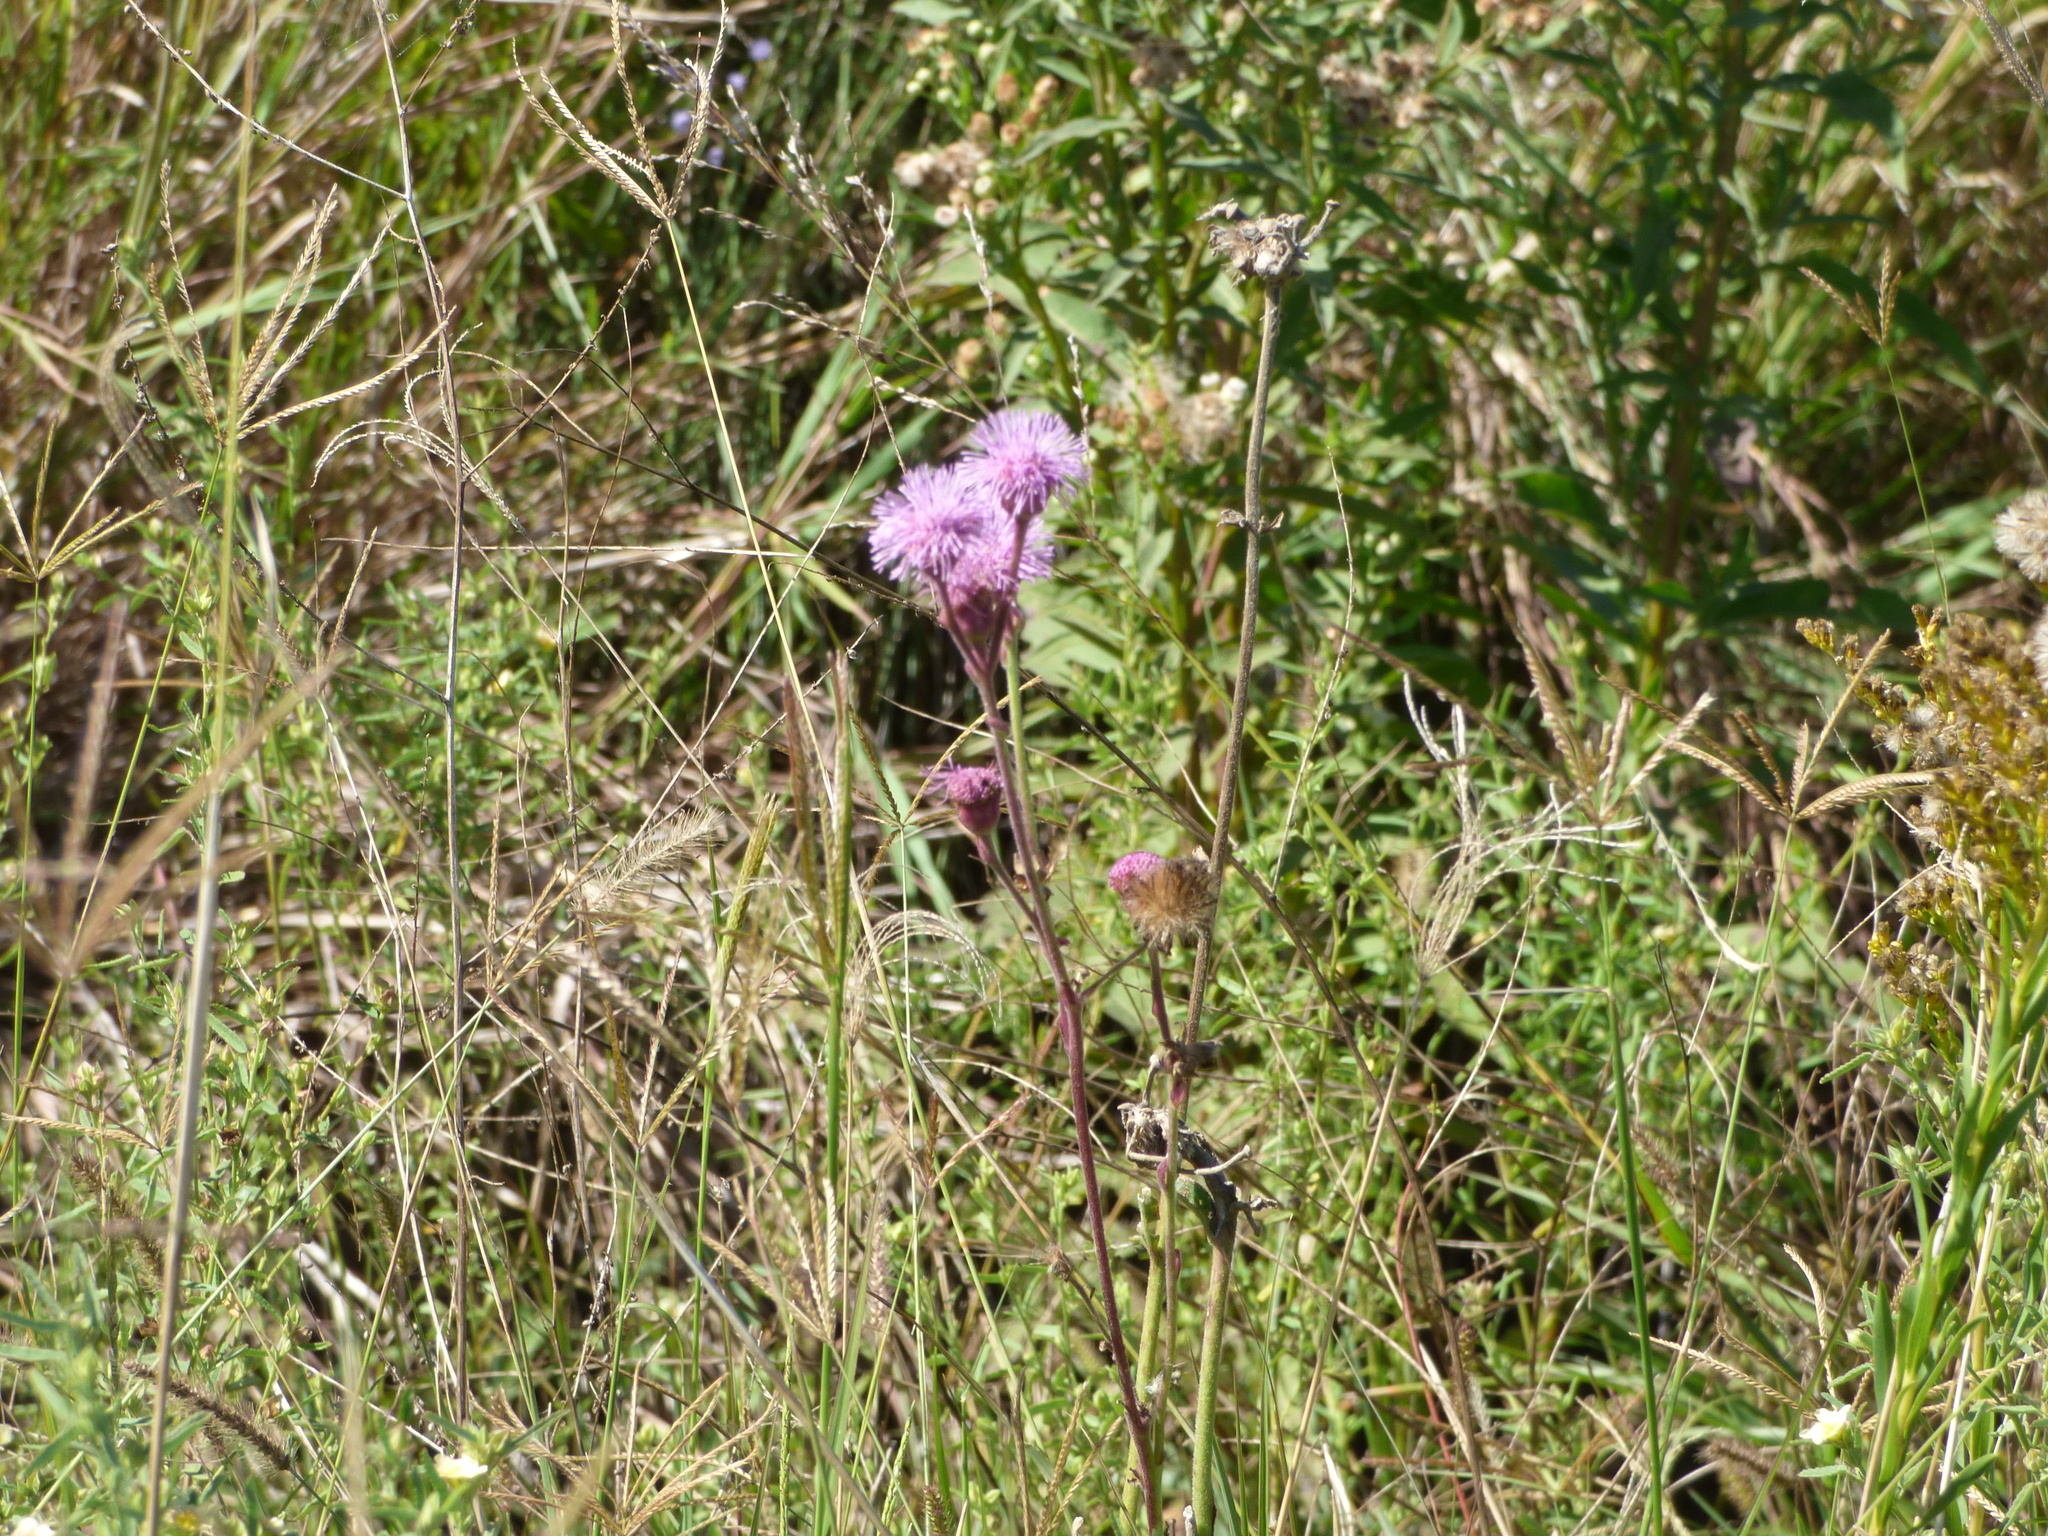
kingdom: Plantae
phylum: Tracheophyta
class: Magnoliopsida
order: Asterales
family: Asteraceae
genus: Campuloclinium
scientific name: Campuloclinium macrocephalum
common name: Pompomweed
